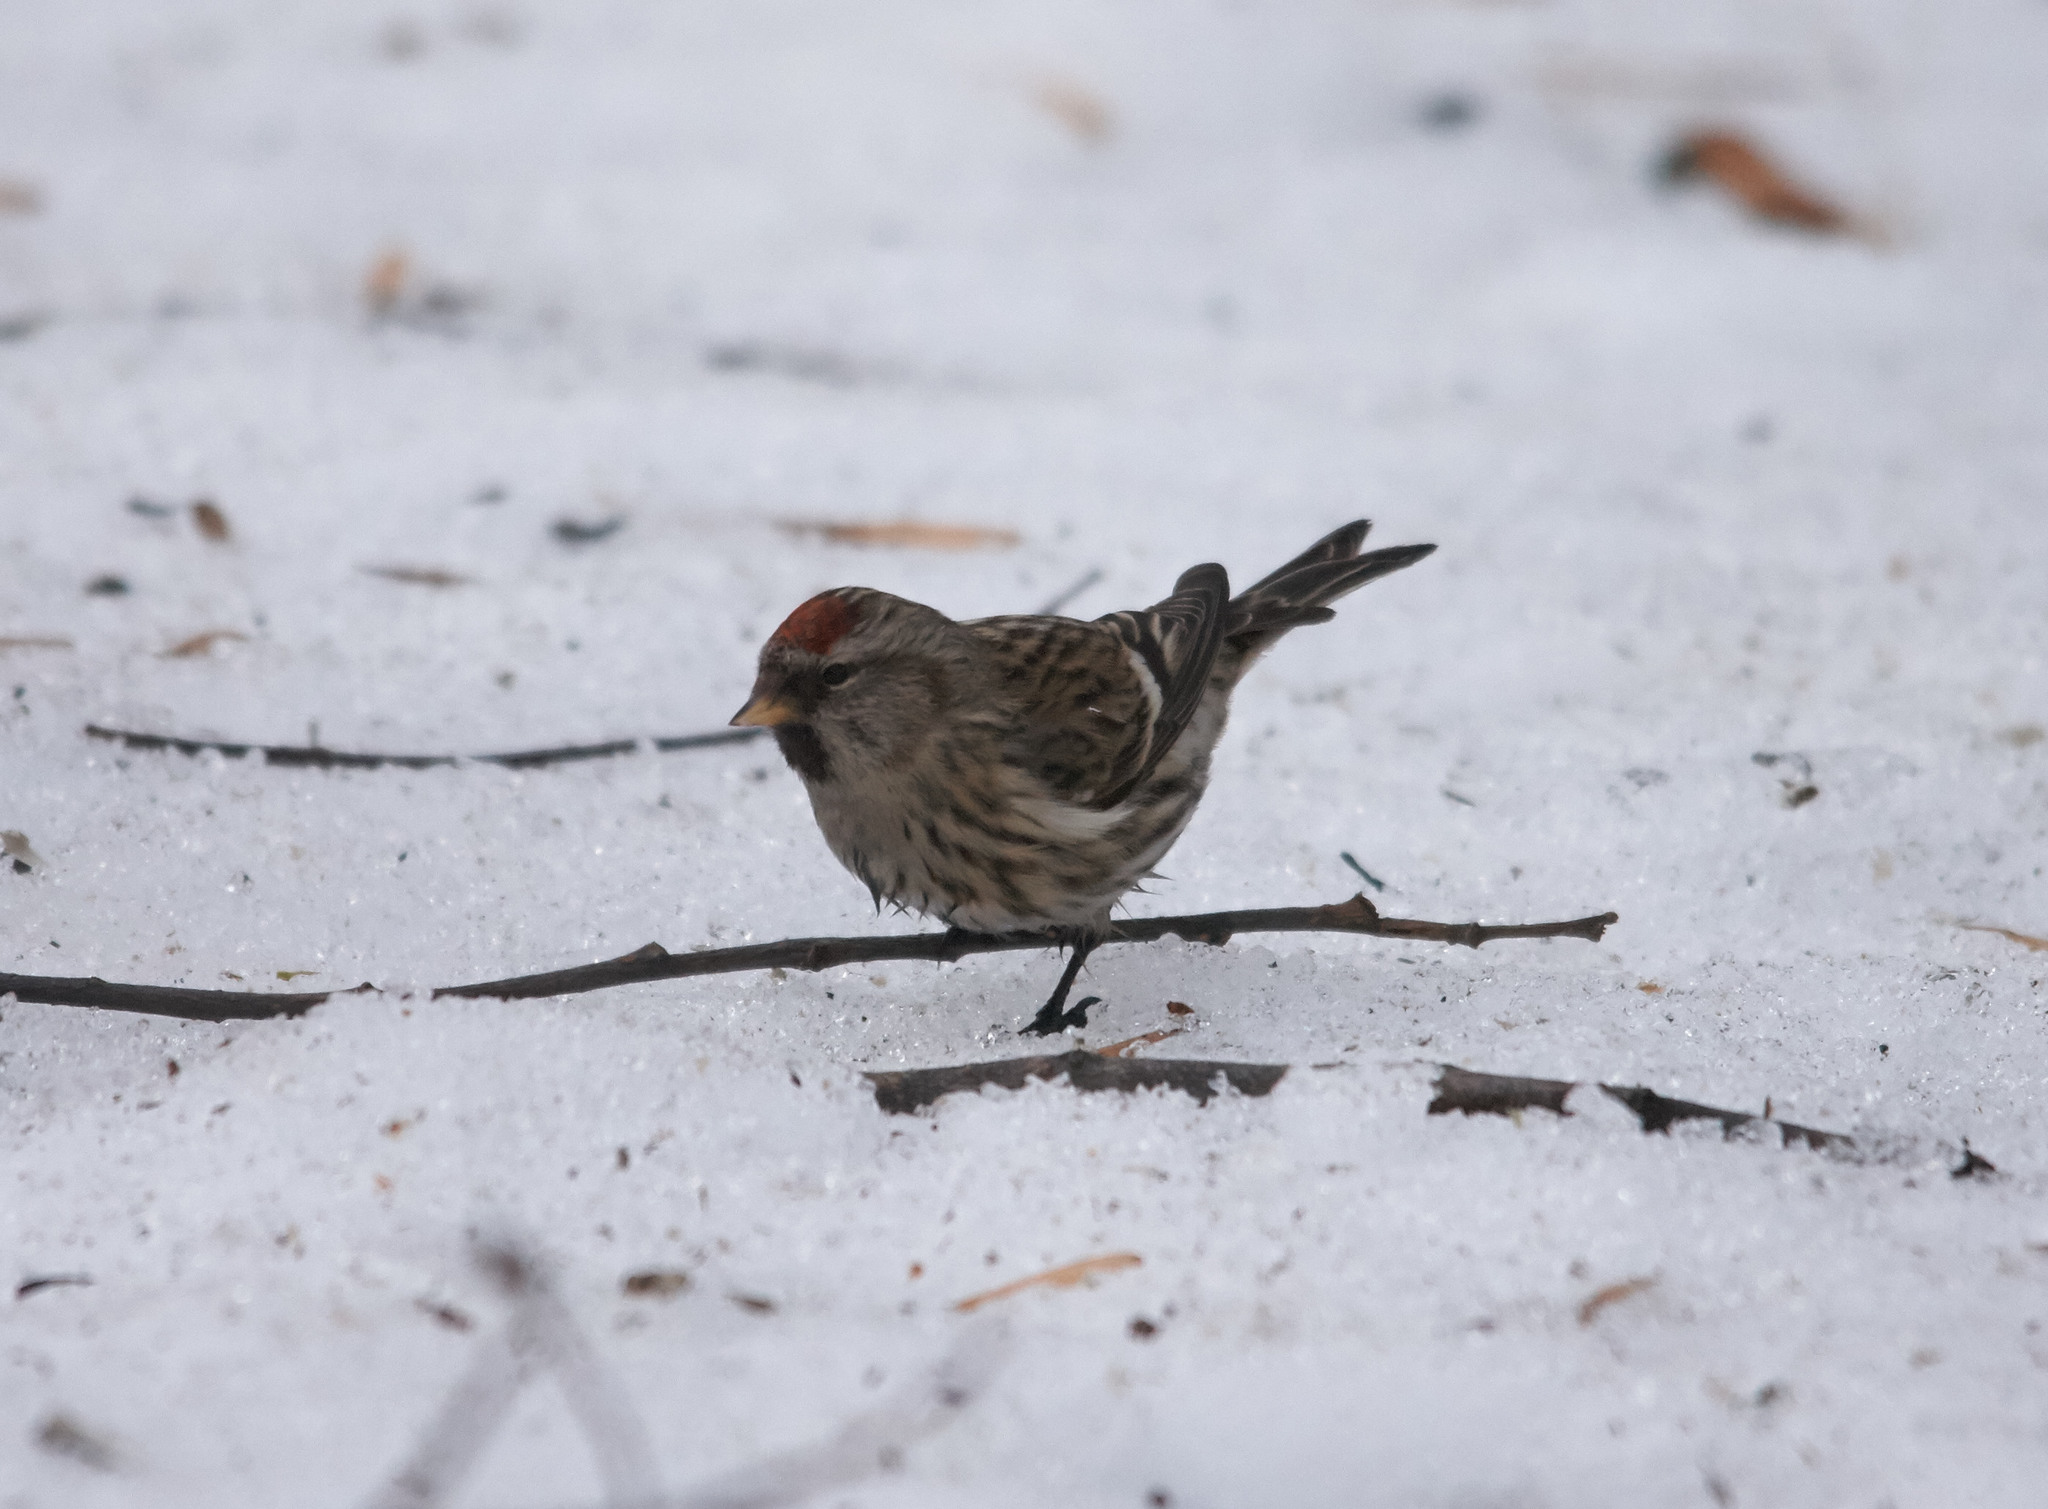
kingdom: Animalia
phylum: Chordata
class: Aves
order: Passeriformes
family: Fringillidae
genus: Acanthis
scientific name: Acanthis flammea
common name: Common redpoll
